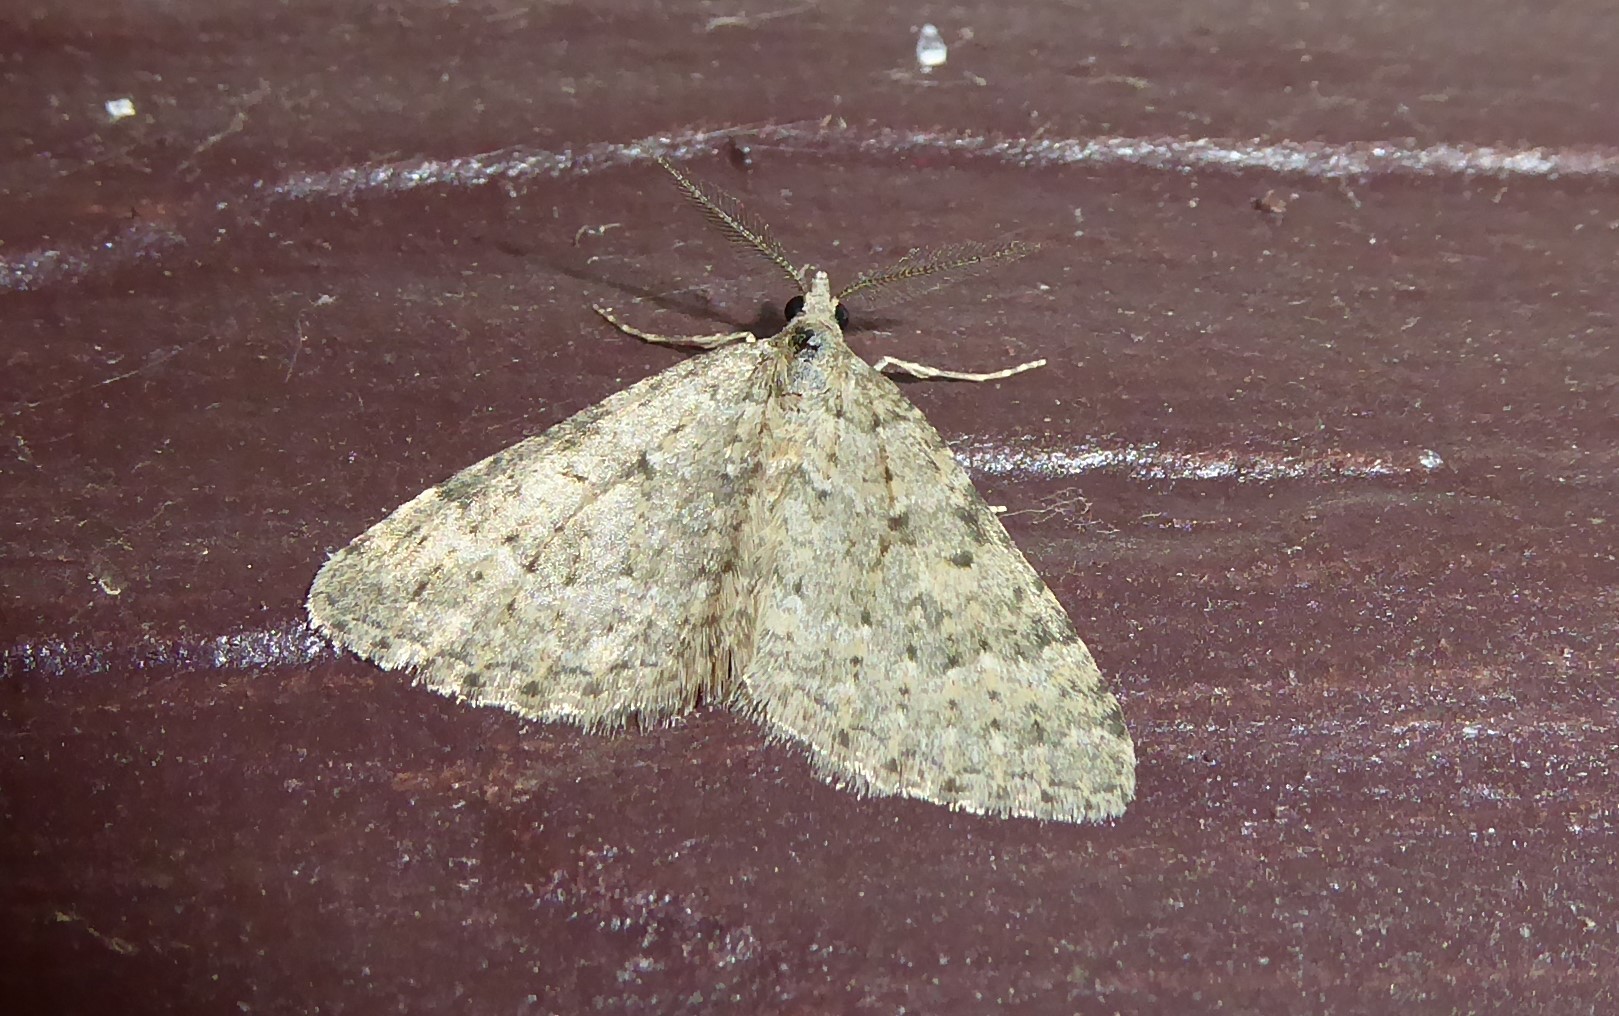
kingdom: Animalia
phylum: Arthropoda
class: Insecta
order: Lepidoptera
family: Geometridae
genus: Helastia
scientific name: Helastia corcularia
